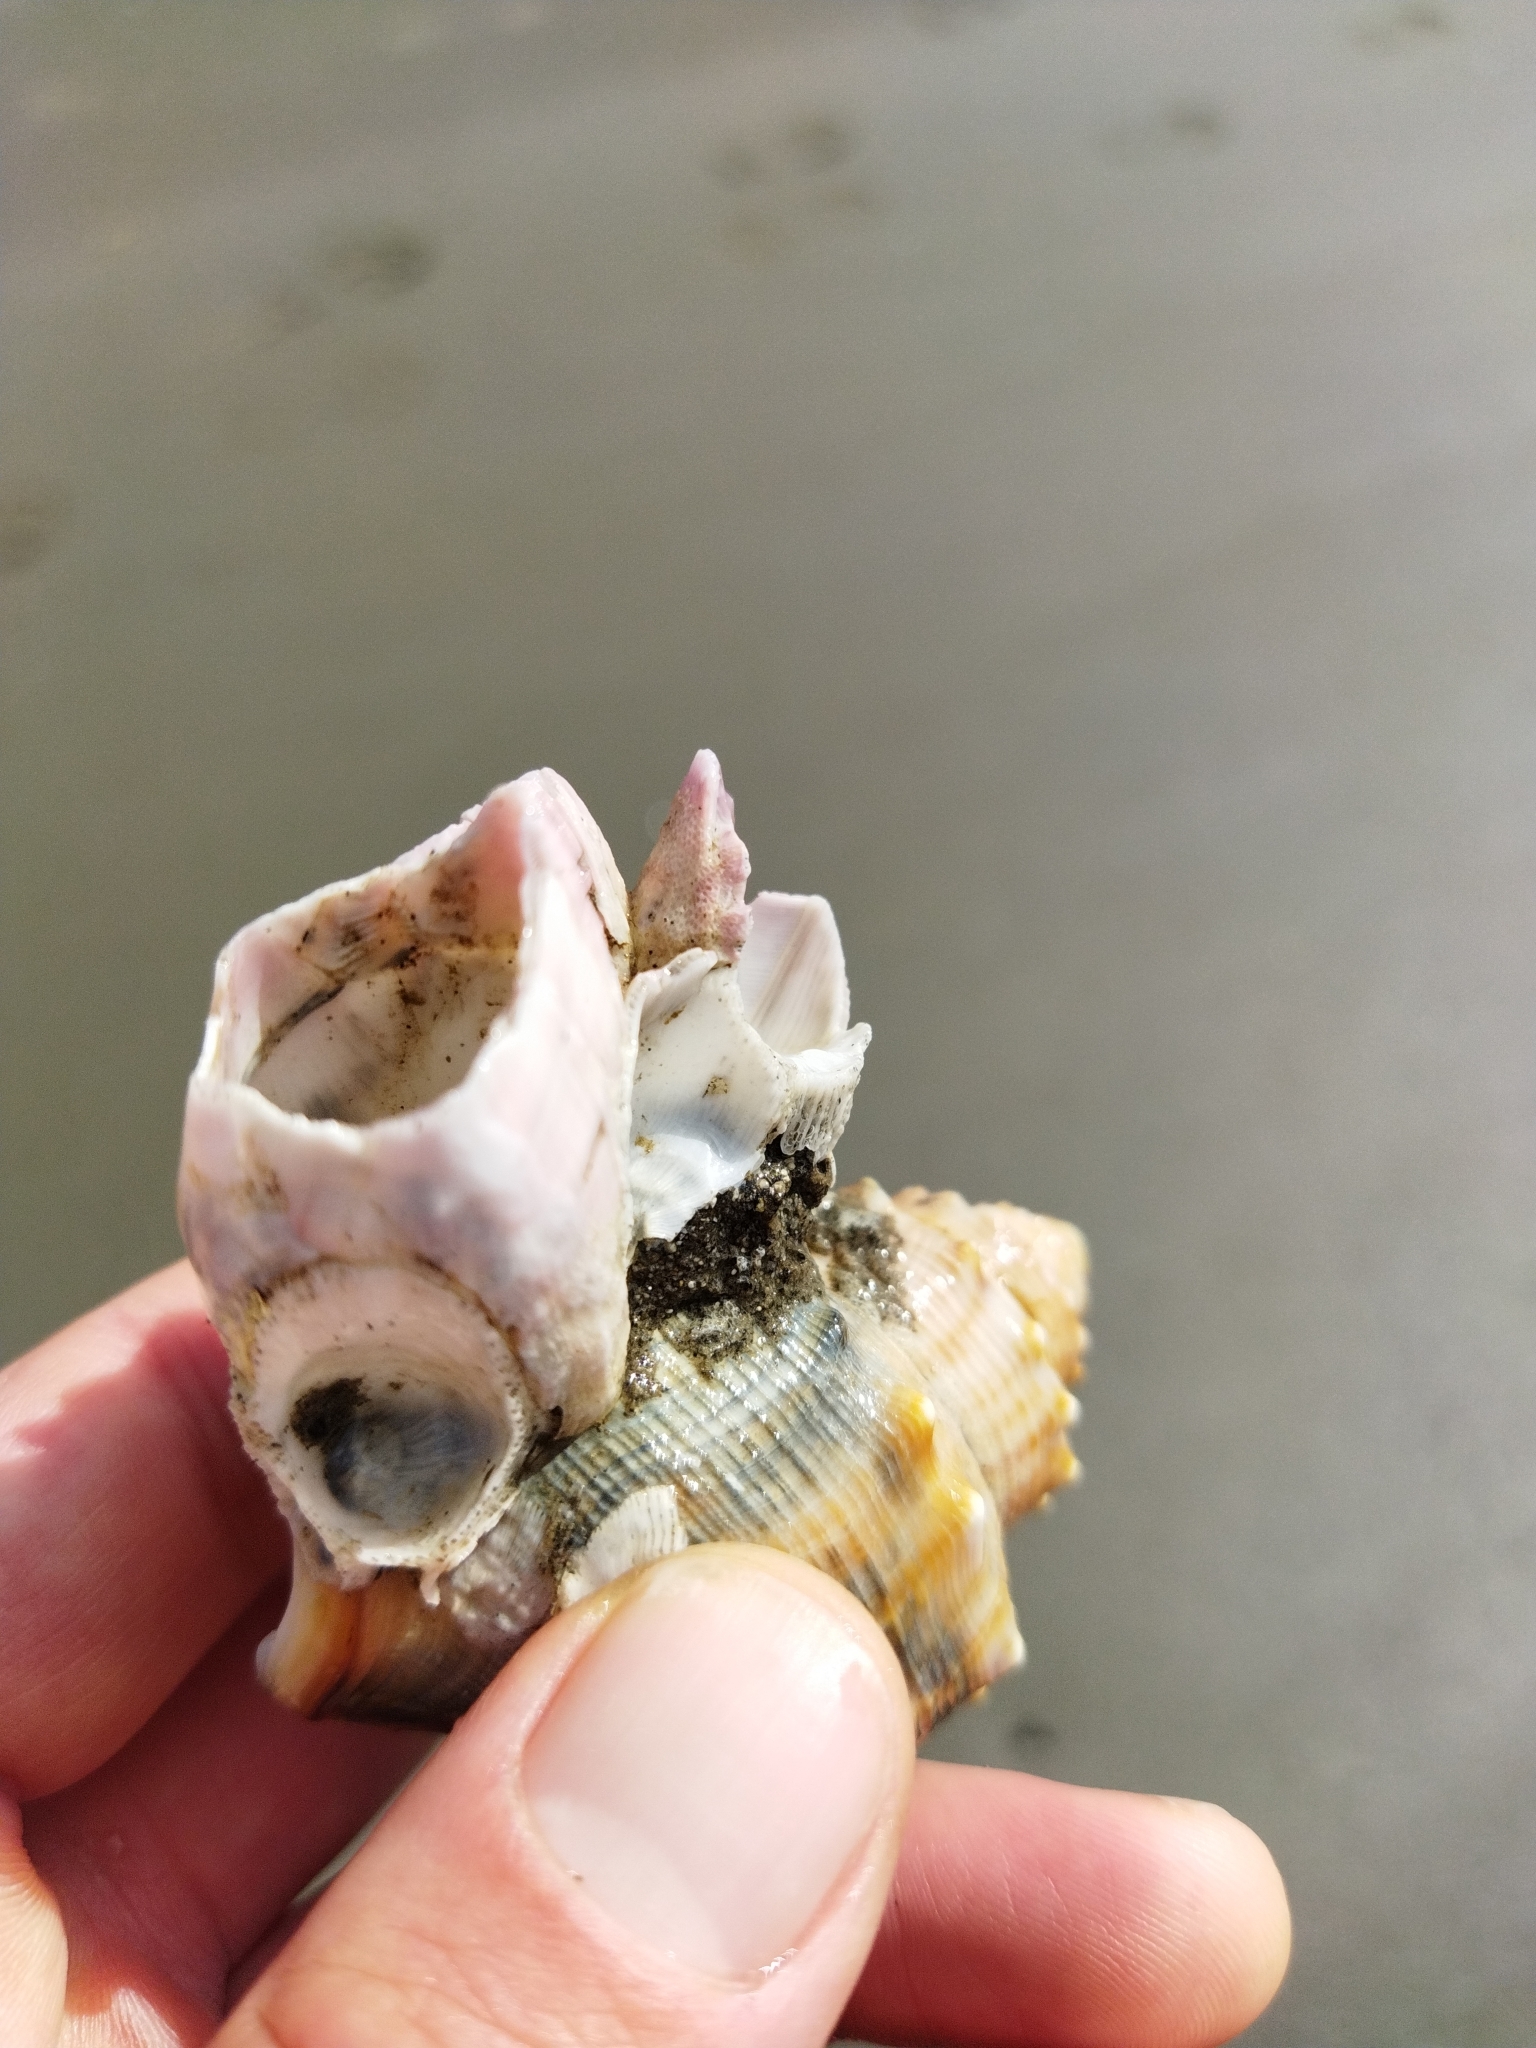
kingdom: Animalia
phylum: Arthropoda
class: Maxillopoda
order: Sessilia
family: Balanidae
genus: Notomegabalanus
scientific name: Notomegabalanus decorus
